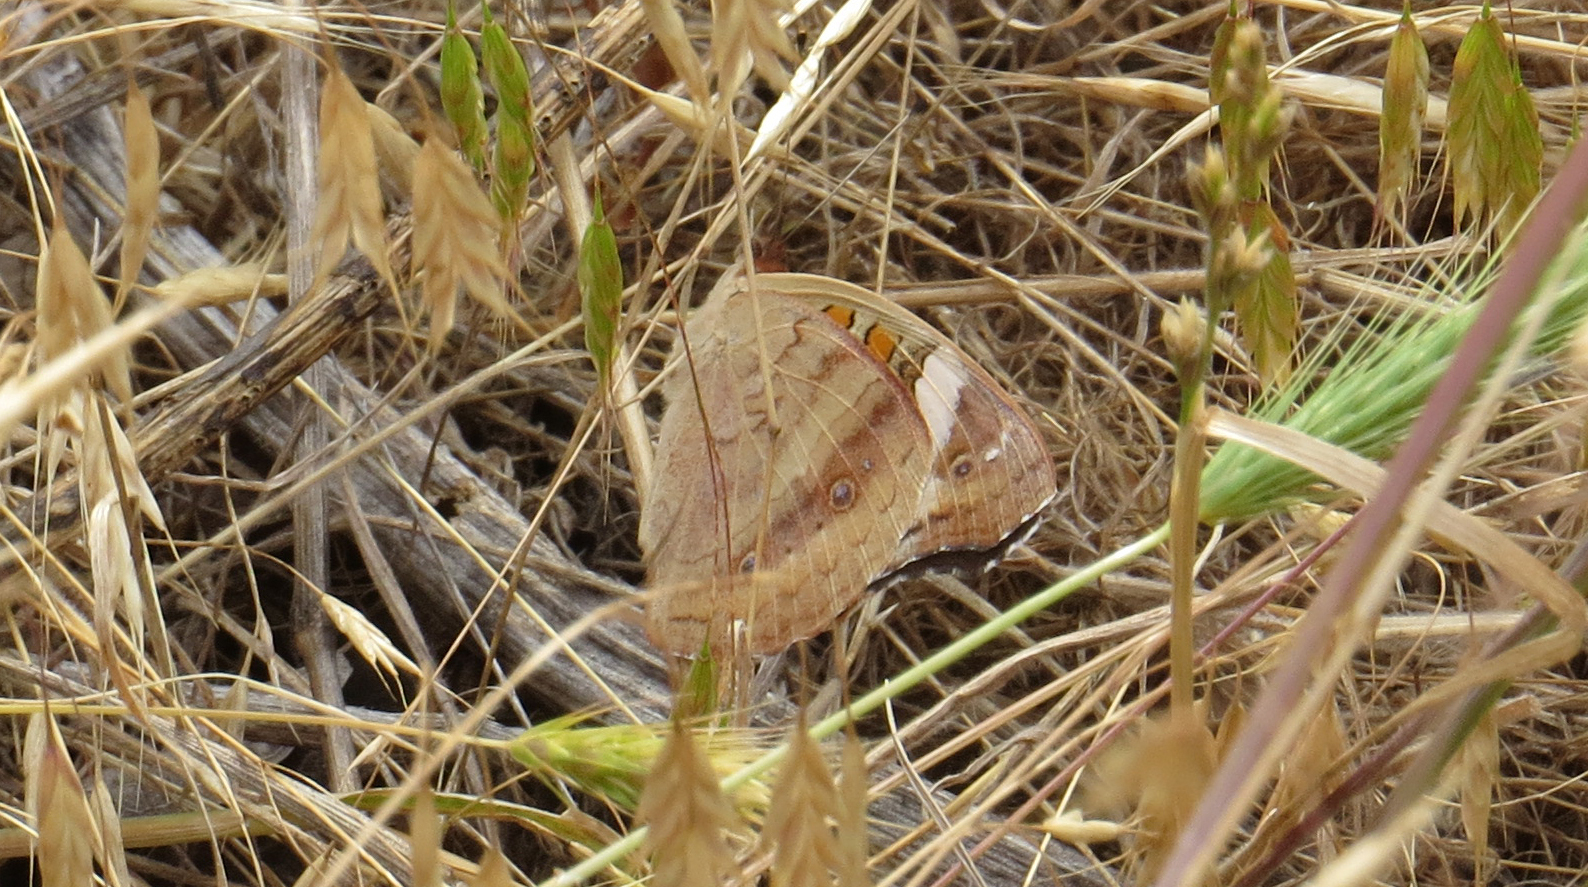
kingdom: Animalia
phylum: Arthropoda
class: Insecta
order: Lepidoptera
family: Nymphalidae
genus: Junonia
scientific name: Junonia coenia
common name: Common buckeye
